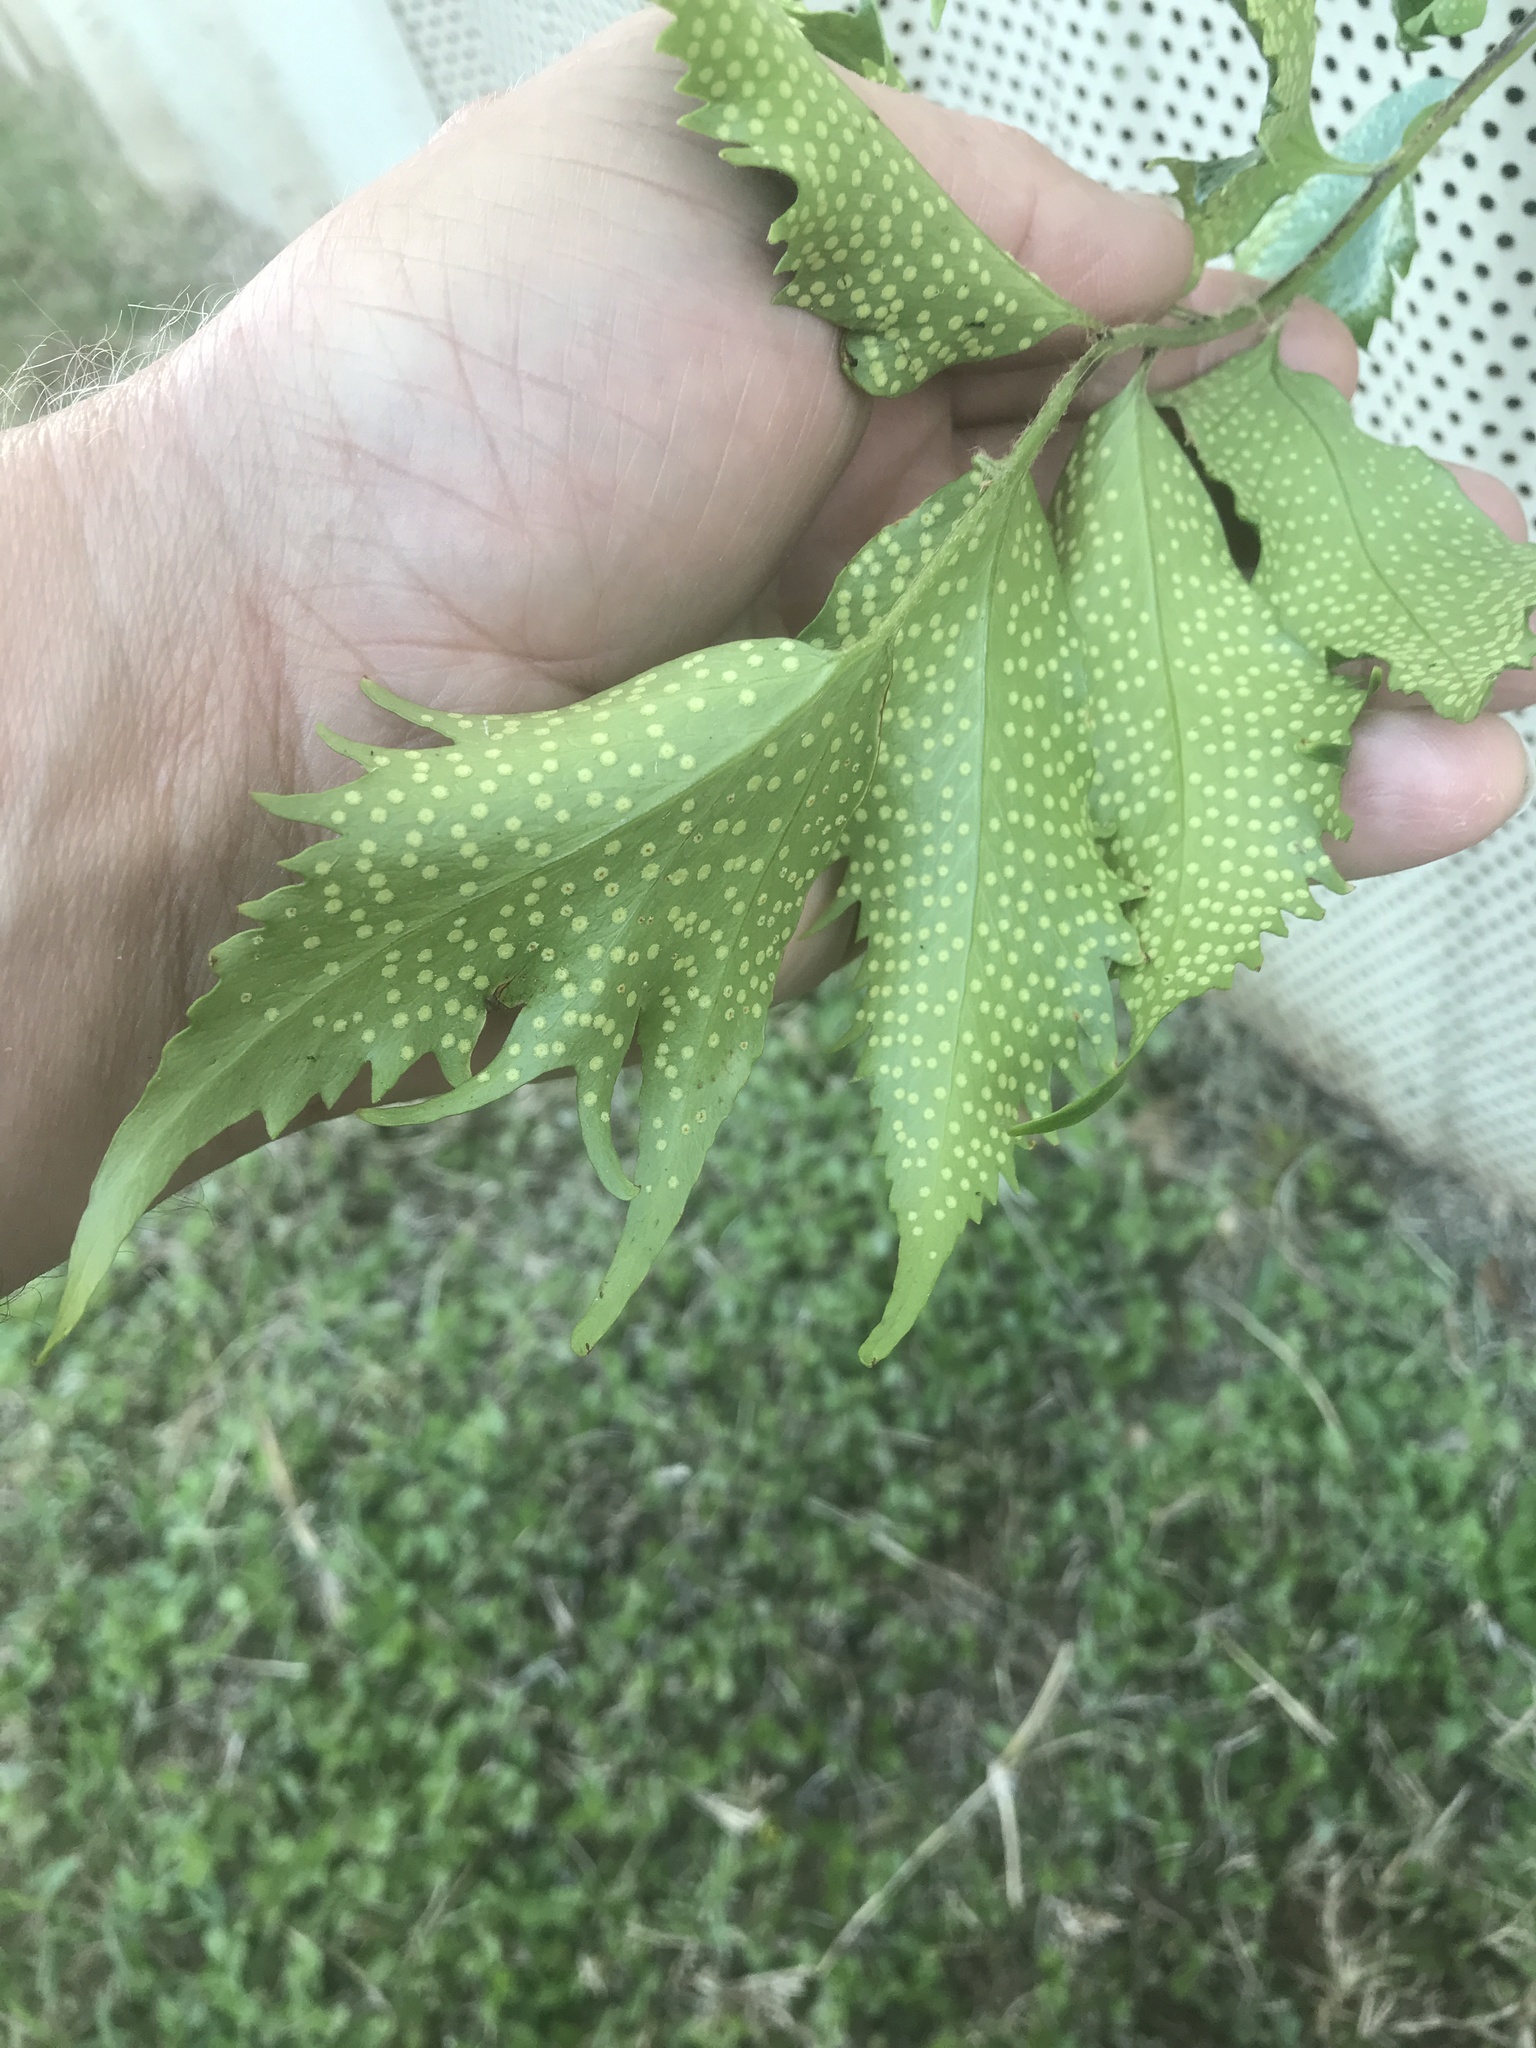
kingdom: Plantae
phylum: Tracheophyta
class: Polypodiopsida
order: Polypodiales
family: Dryopteridaceae
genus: Cyrtomium
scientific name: Cyrtomium falcatum
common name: House holly-fern
